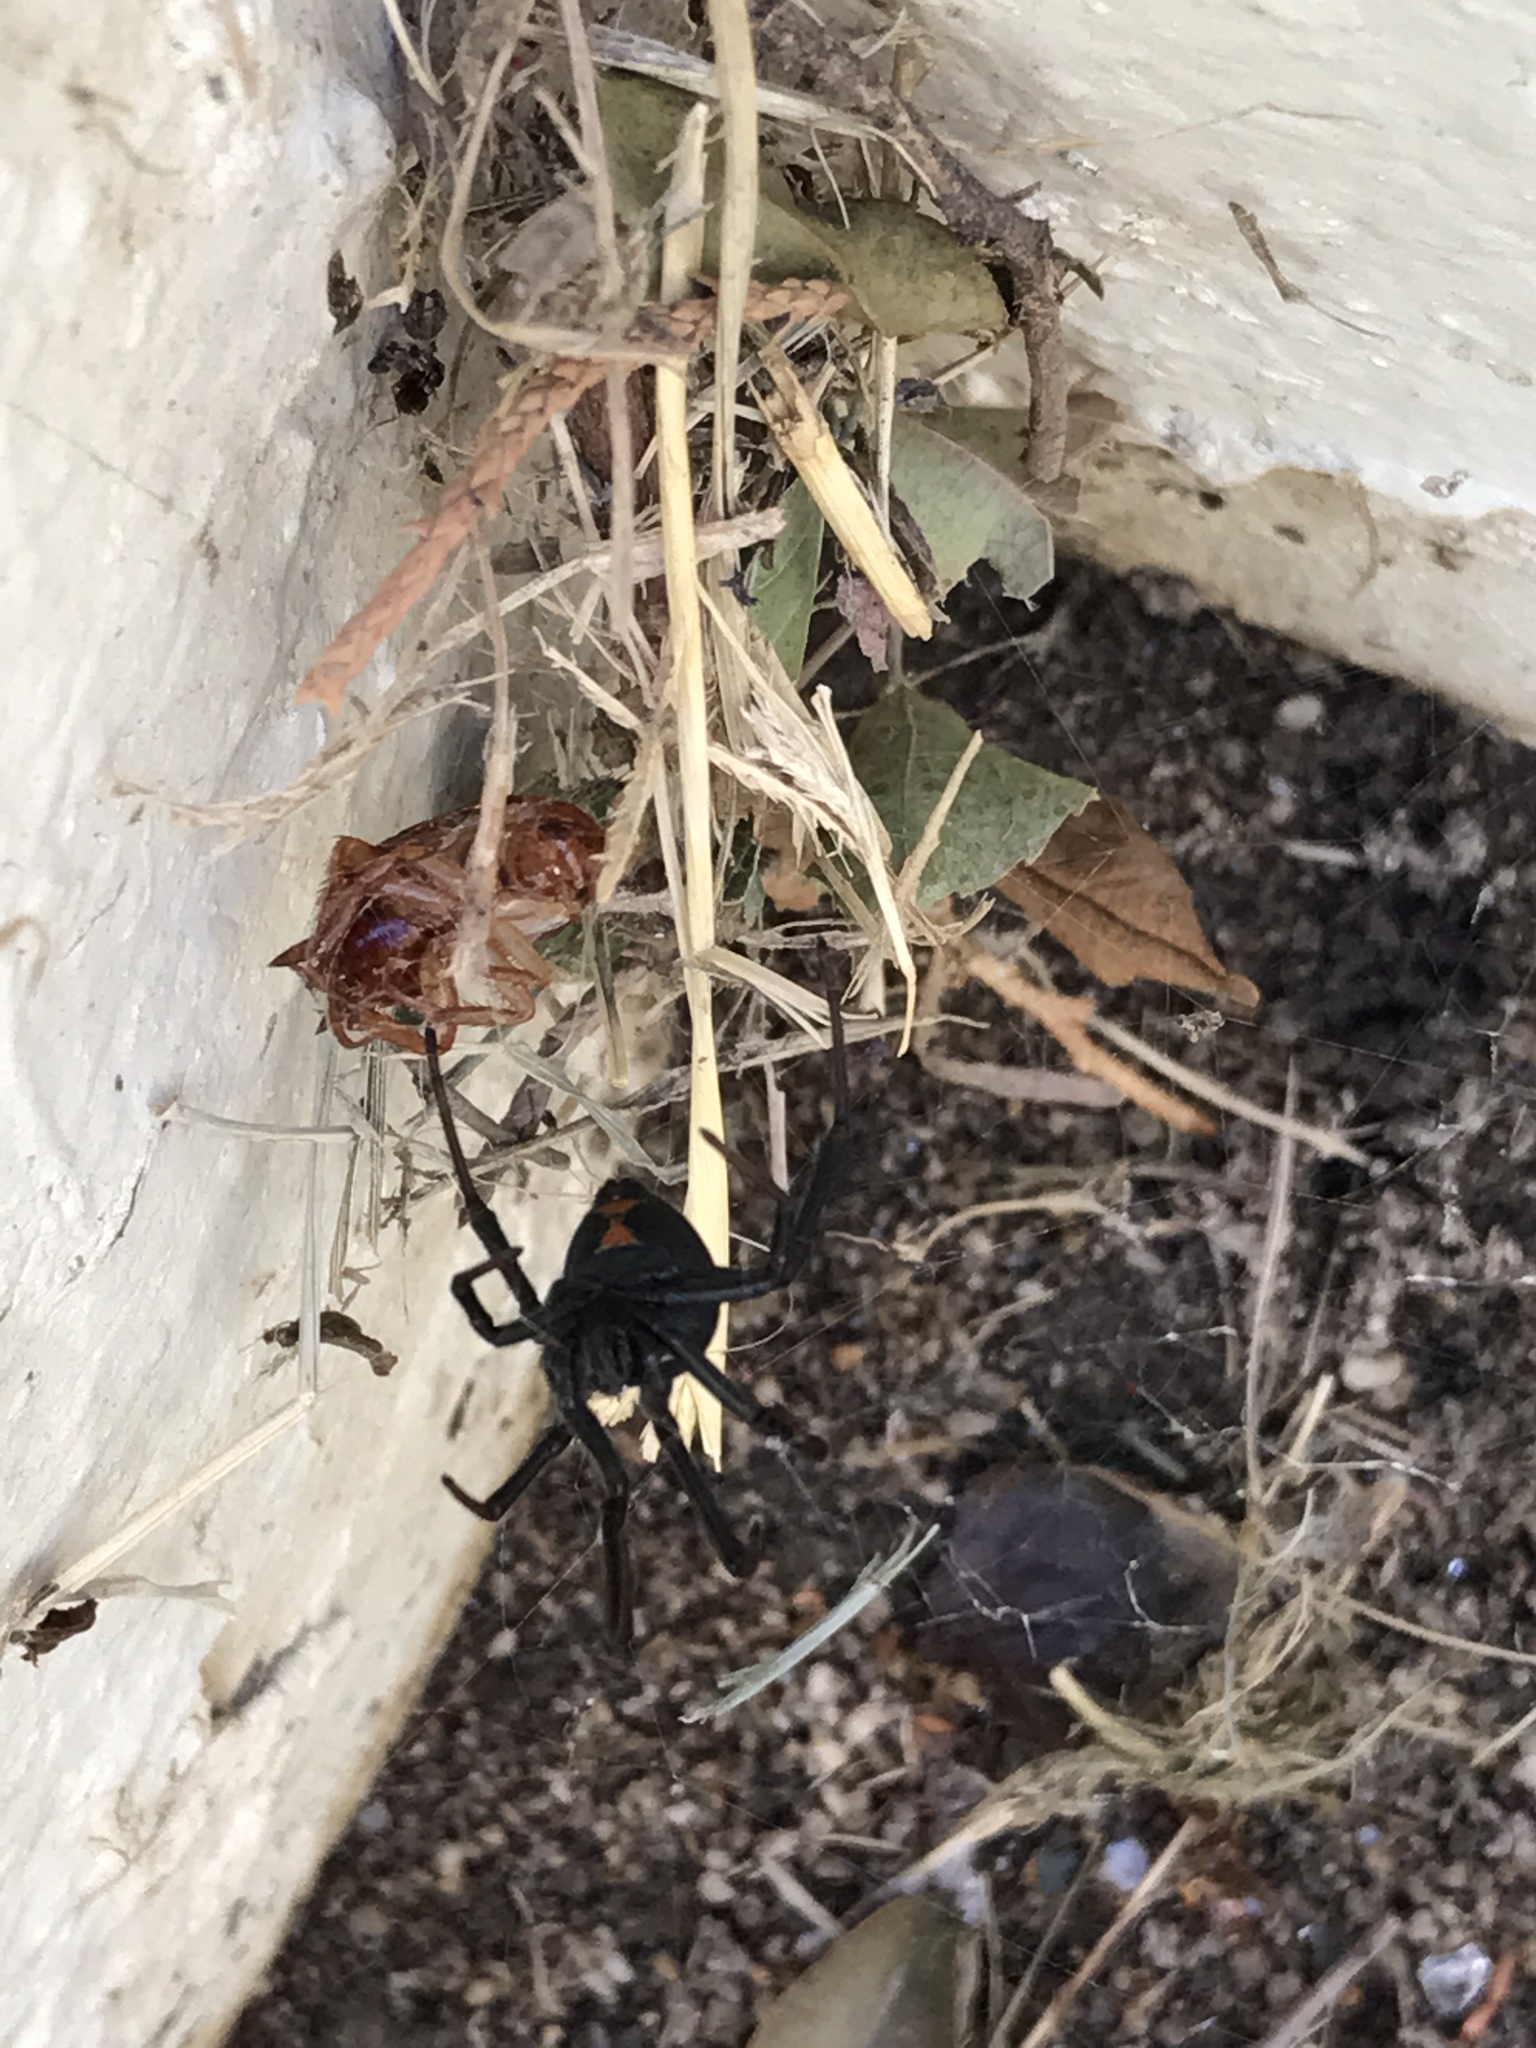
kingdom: Animalia
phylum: Arthropoda
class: Arachnida
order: Araneae
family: Theridiidae
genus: Latrodectus
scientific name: Latrodectus hesperus
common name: Western black widow
